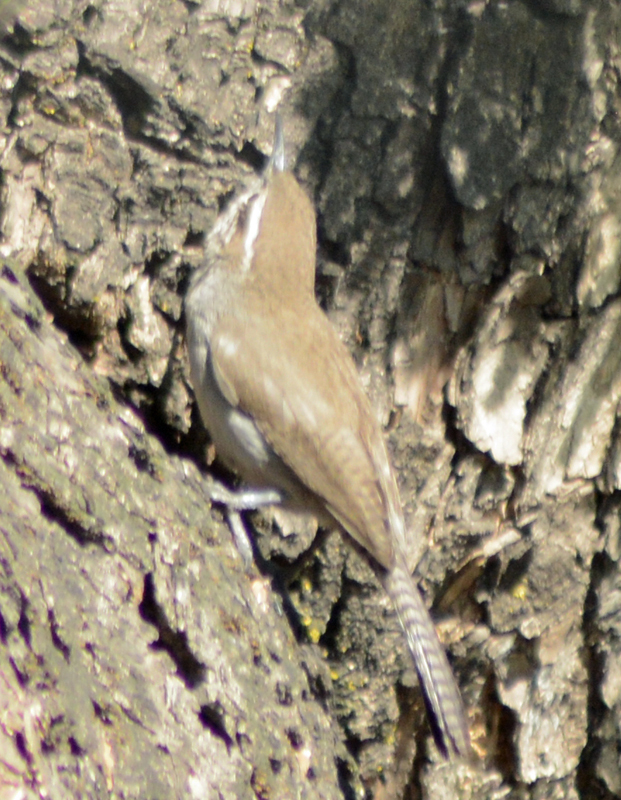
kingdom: Animalia
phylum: Chordata
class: Aves
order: Passeriformes
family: Troglodytidae
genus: Thryomanes
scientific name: Thryomanes bewickii
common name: Bewick's wren
